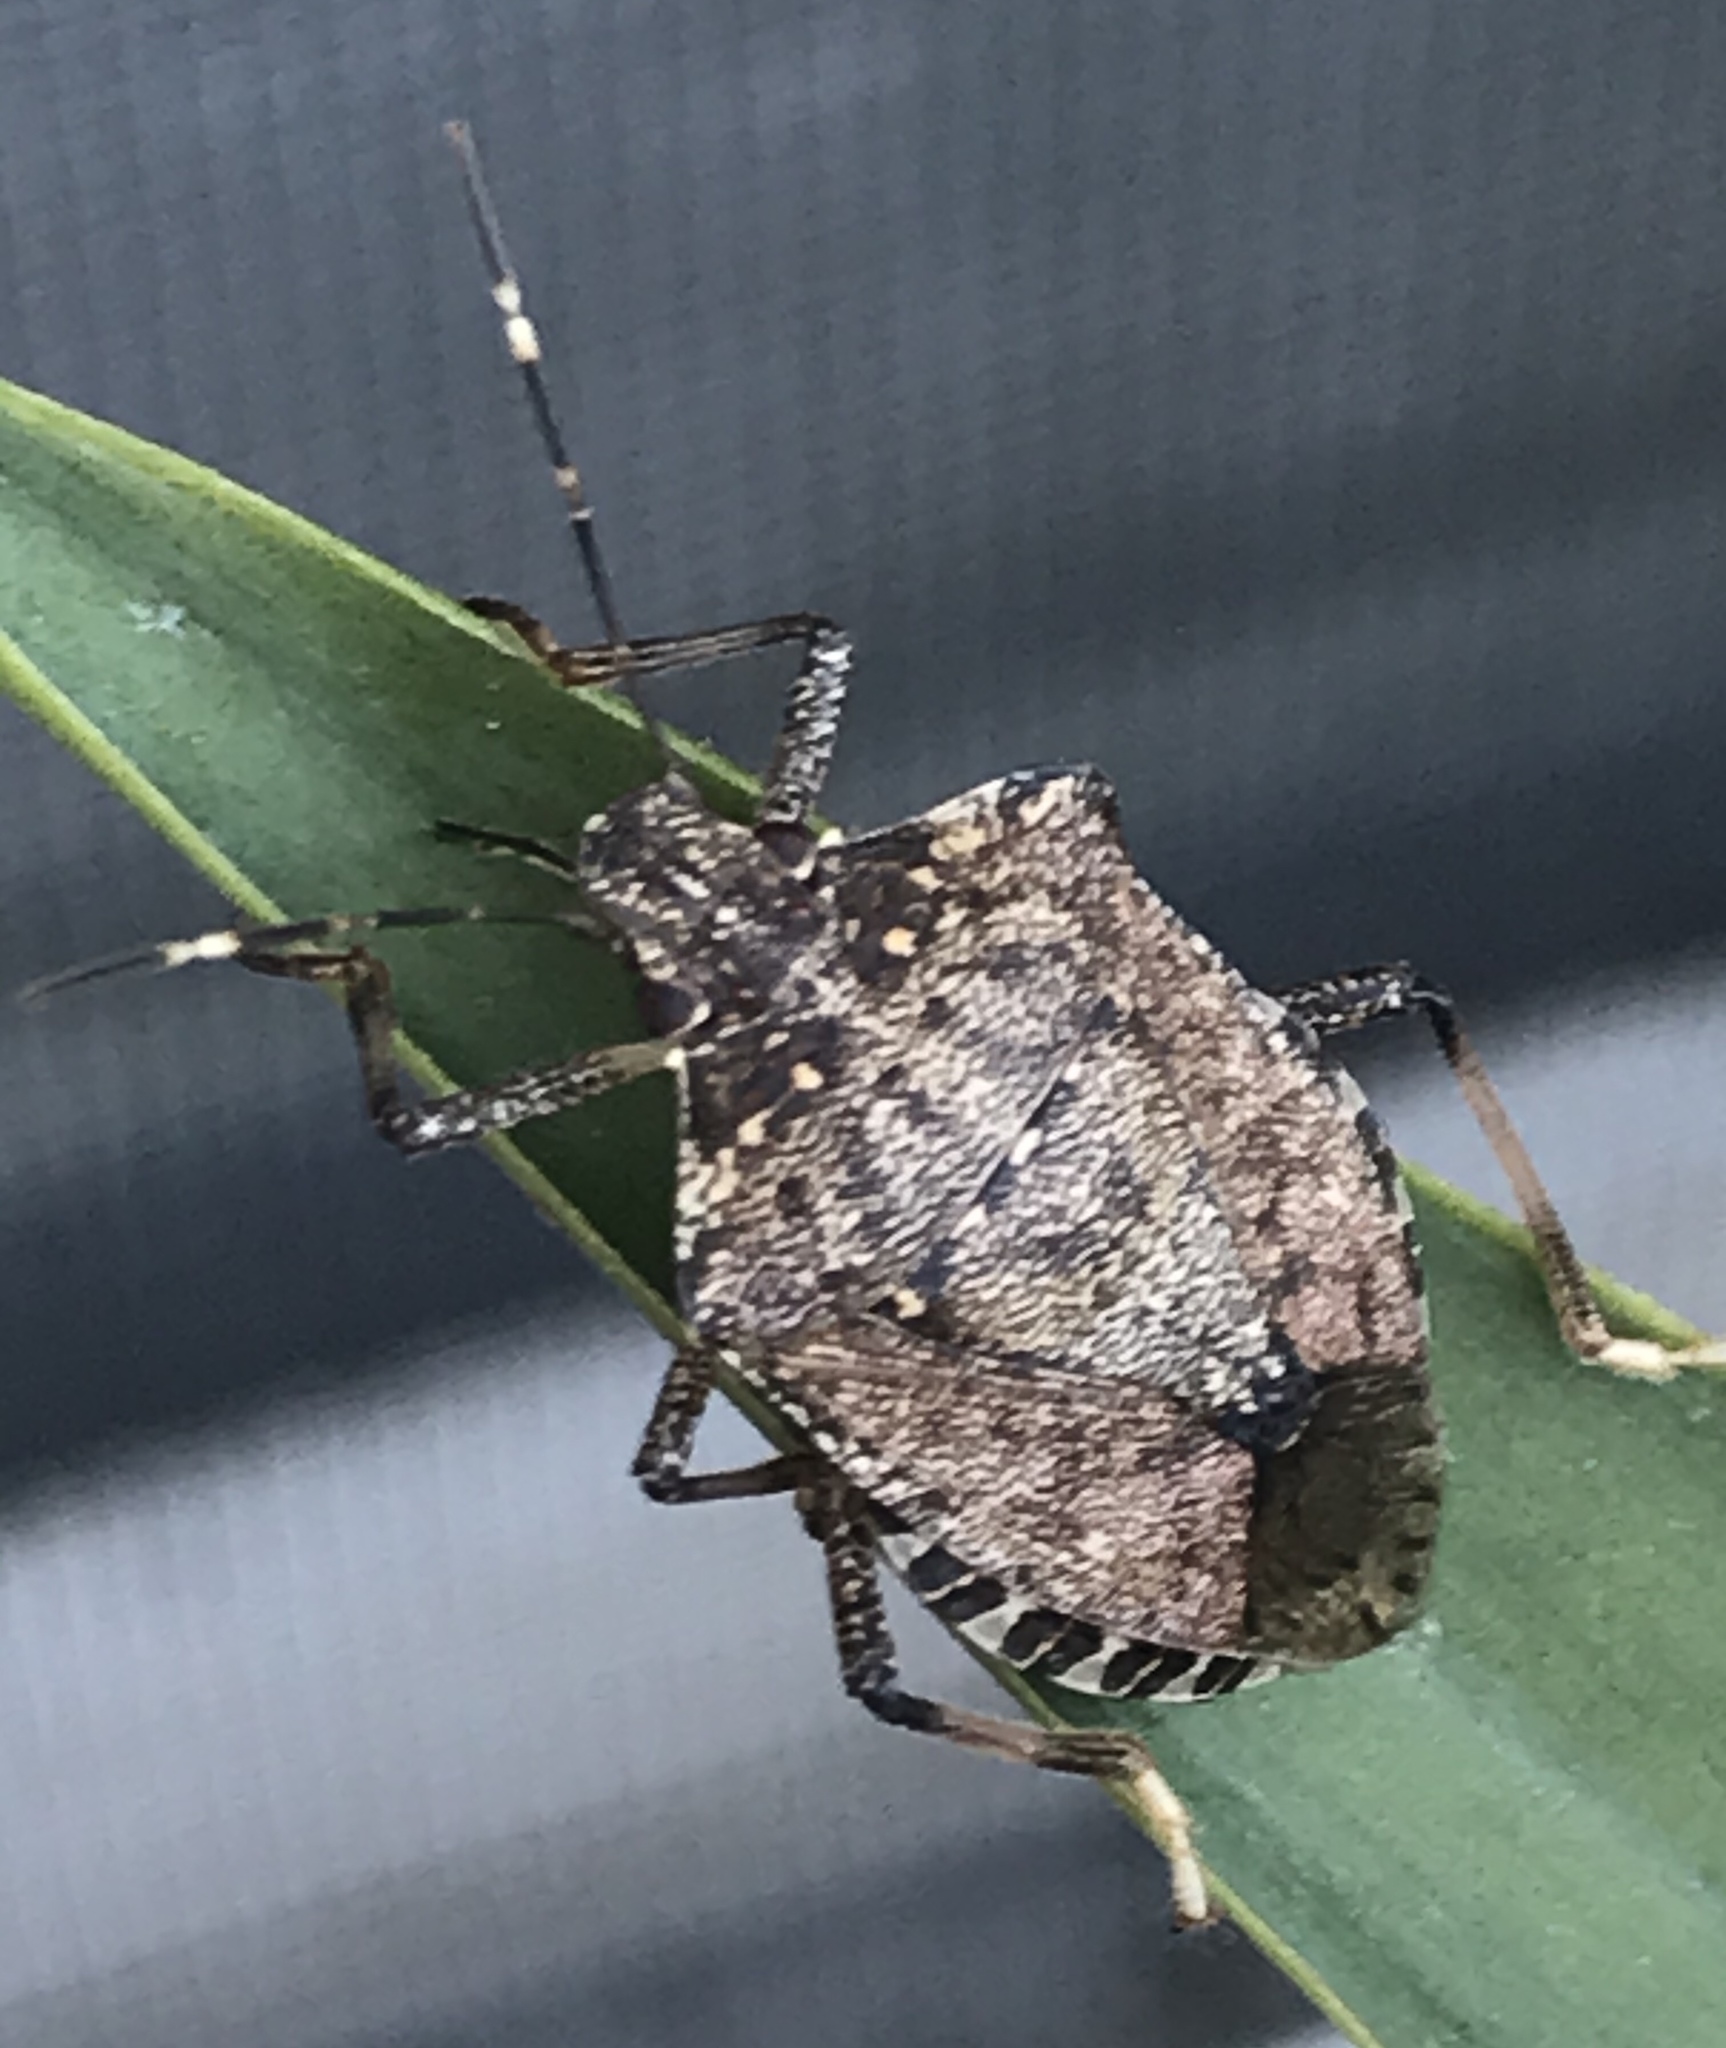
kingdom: Animalia
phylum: Arthropoda
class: Insecta
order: Hemiptera
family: Pentatomidae
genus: Halyomorpha
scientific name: Halyomorpha halys
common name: Brown marmorated stink bug
